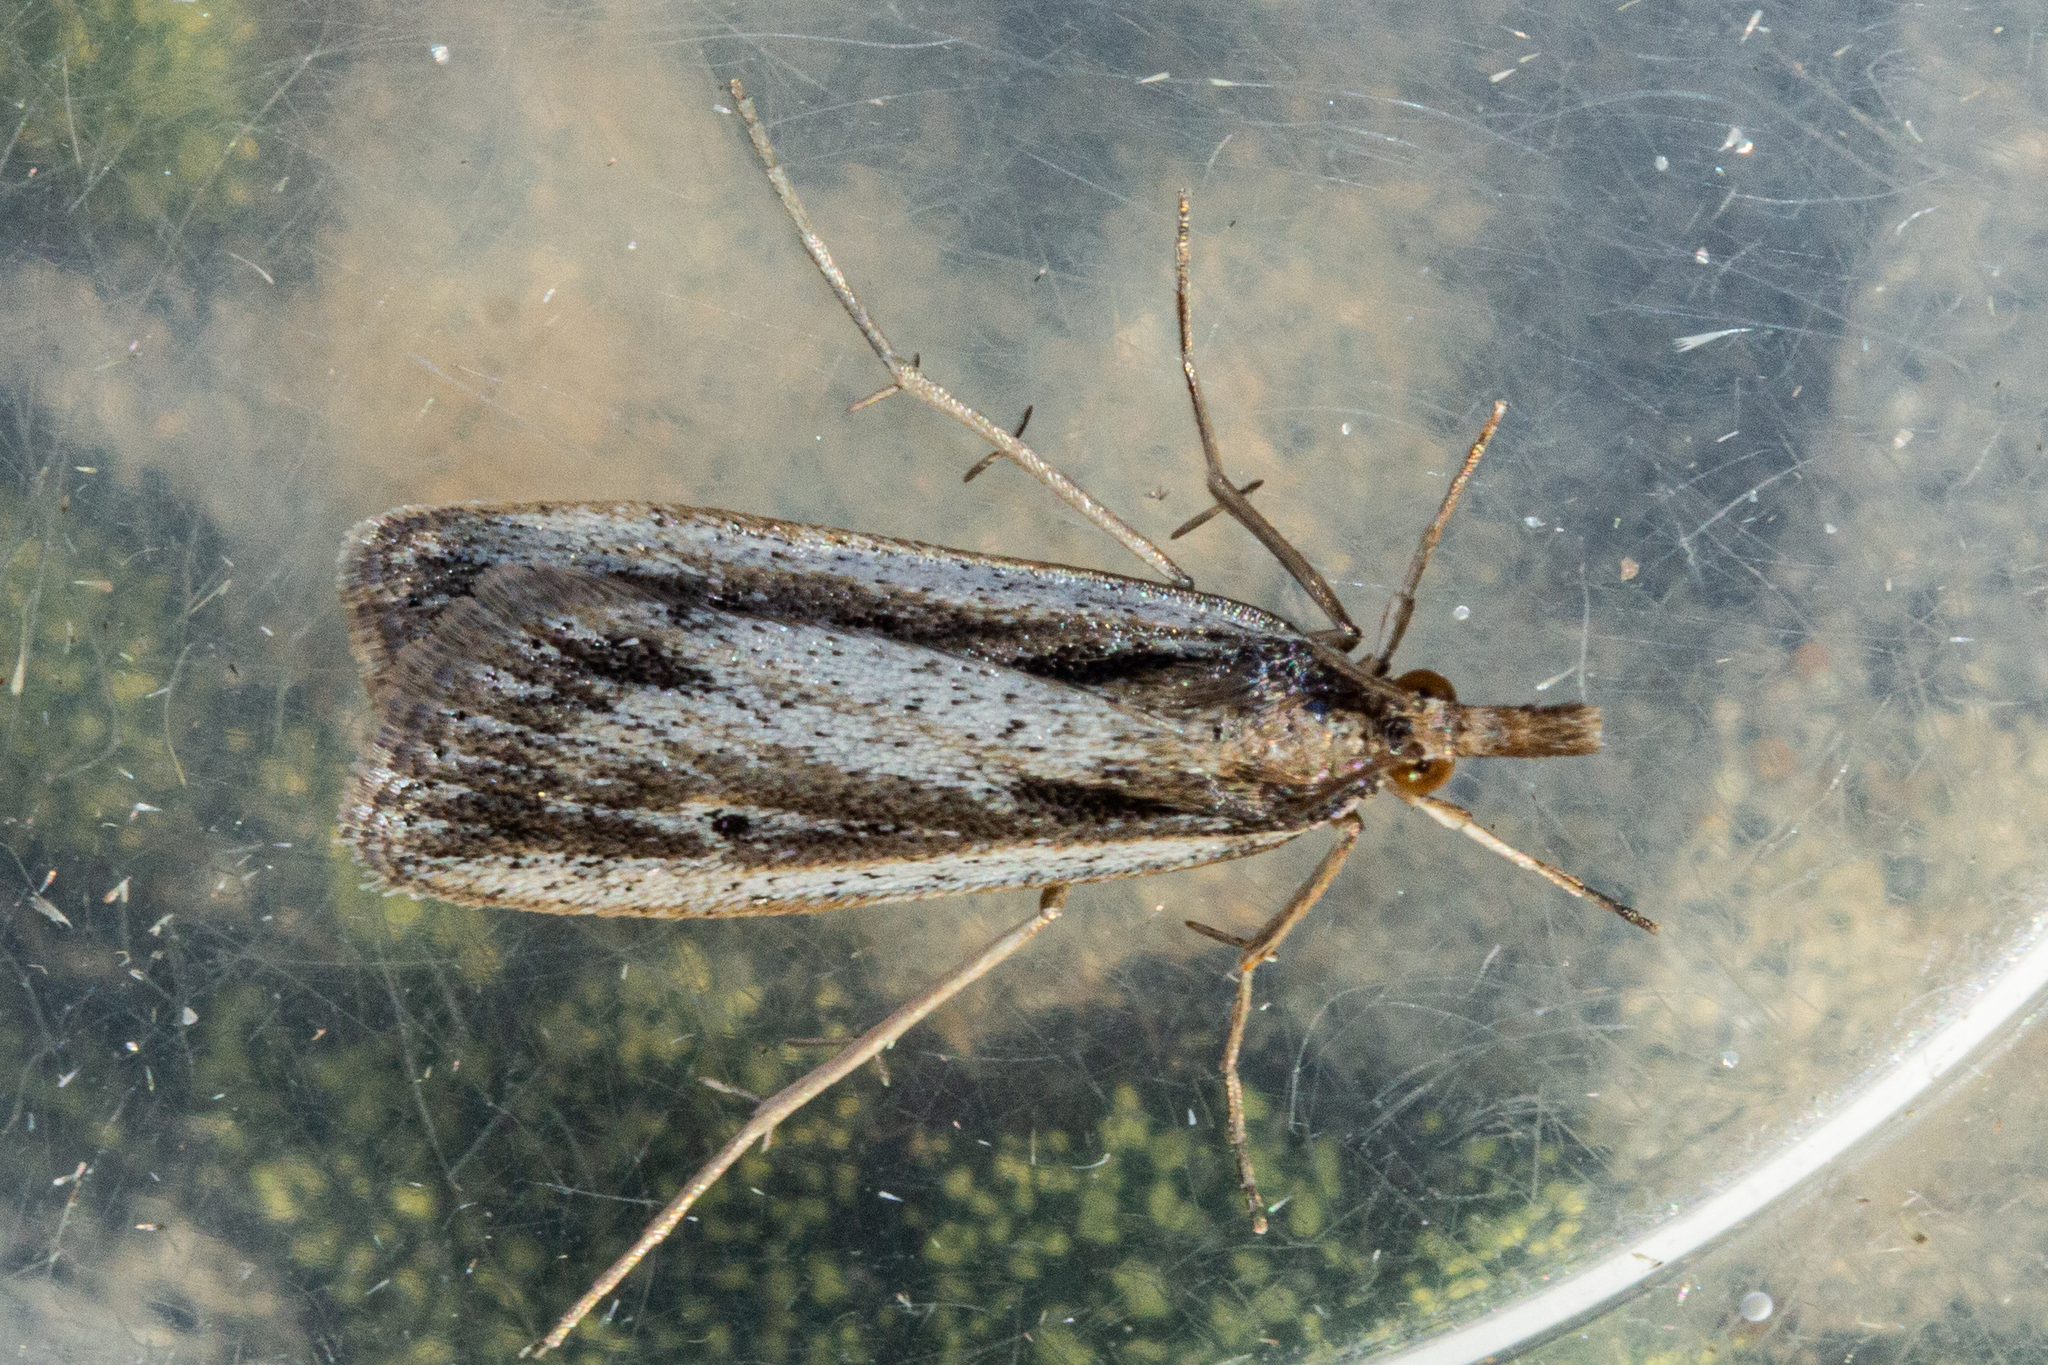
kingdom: Animalia
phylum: Arthropoda
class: Insecta
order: Lepidoptera
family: Crambidae
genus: Eudonia
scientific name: Eudonia sabulosella
